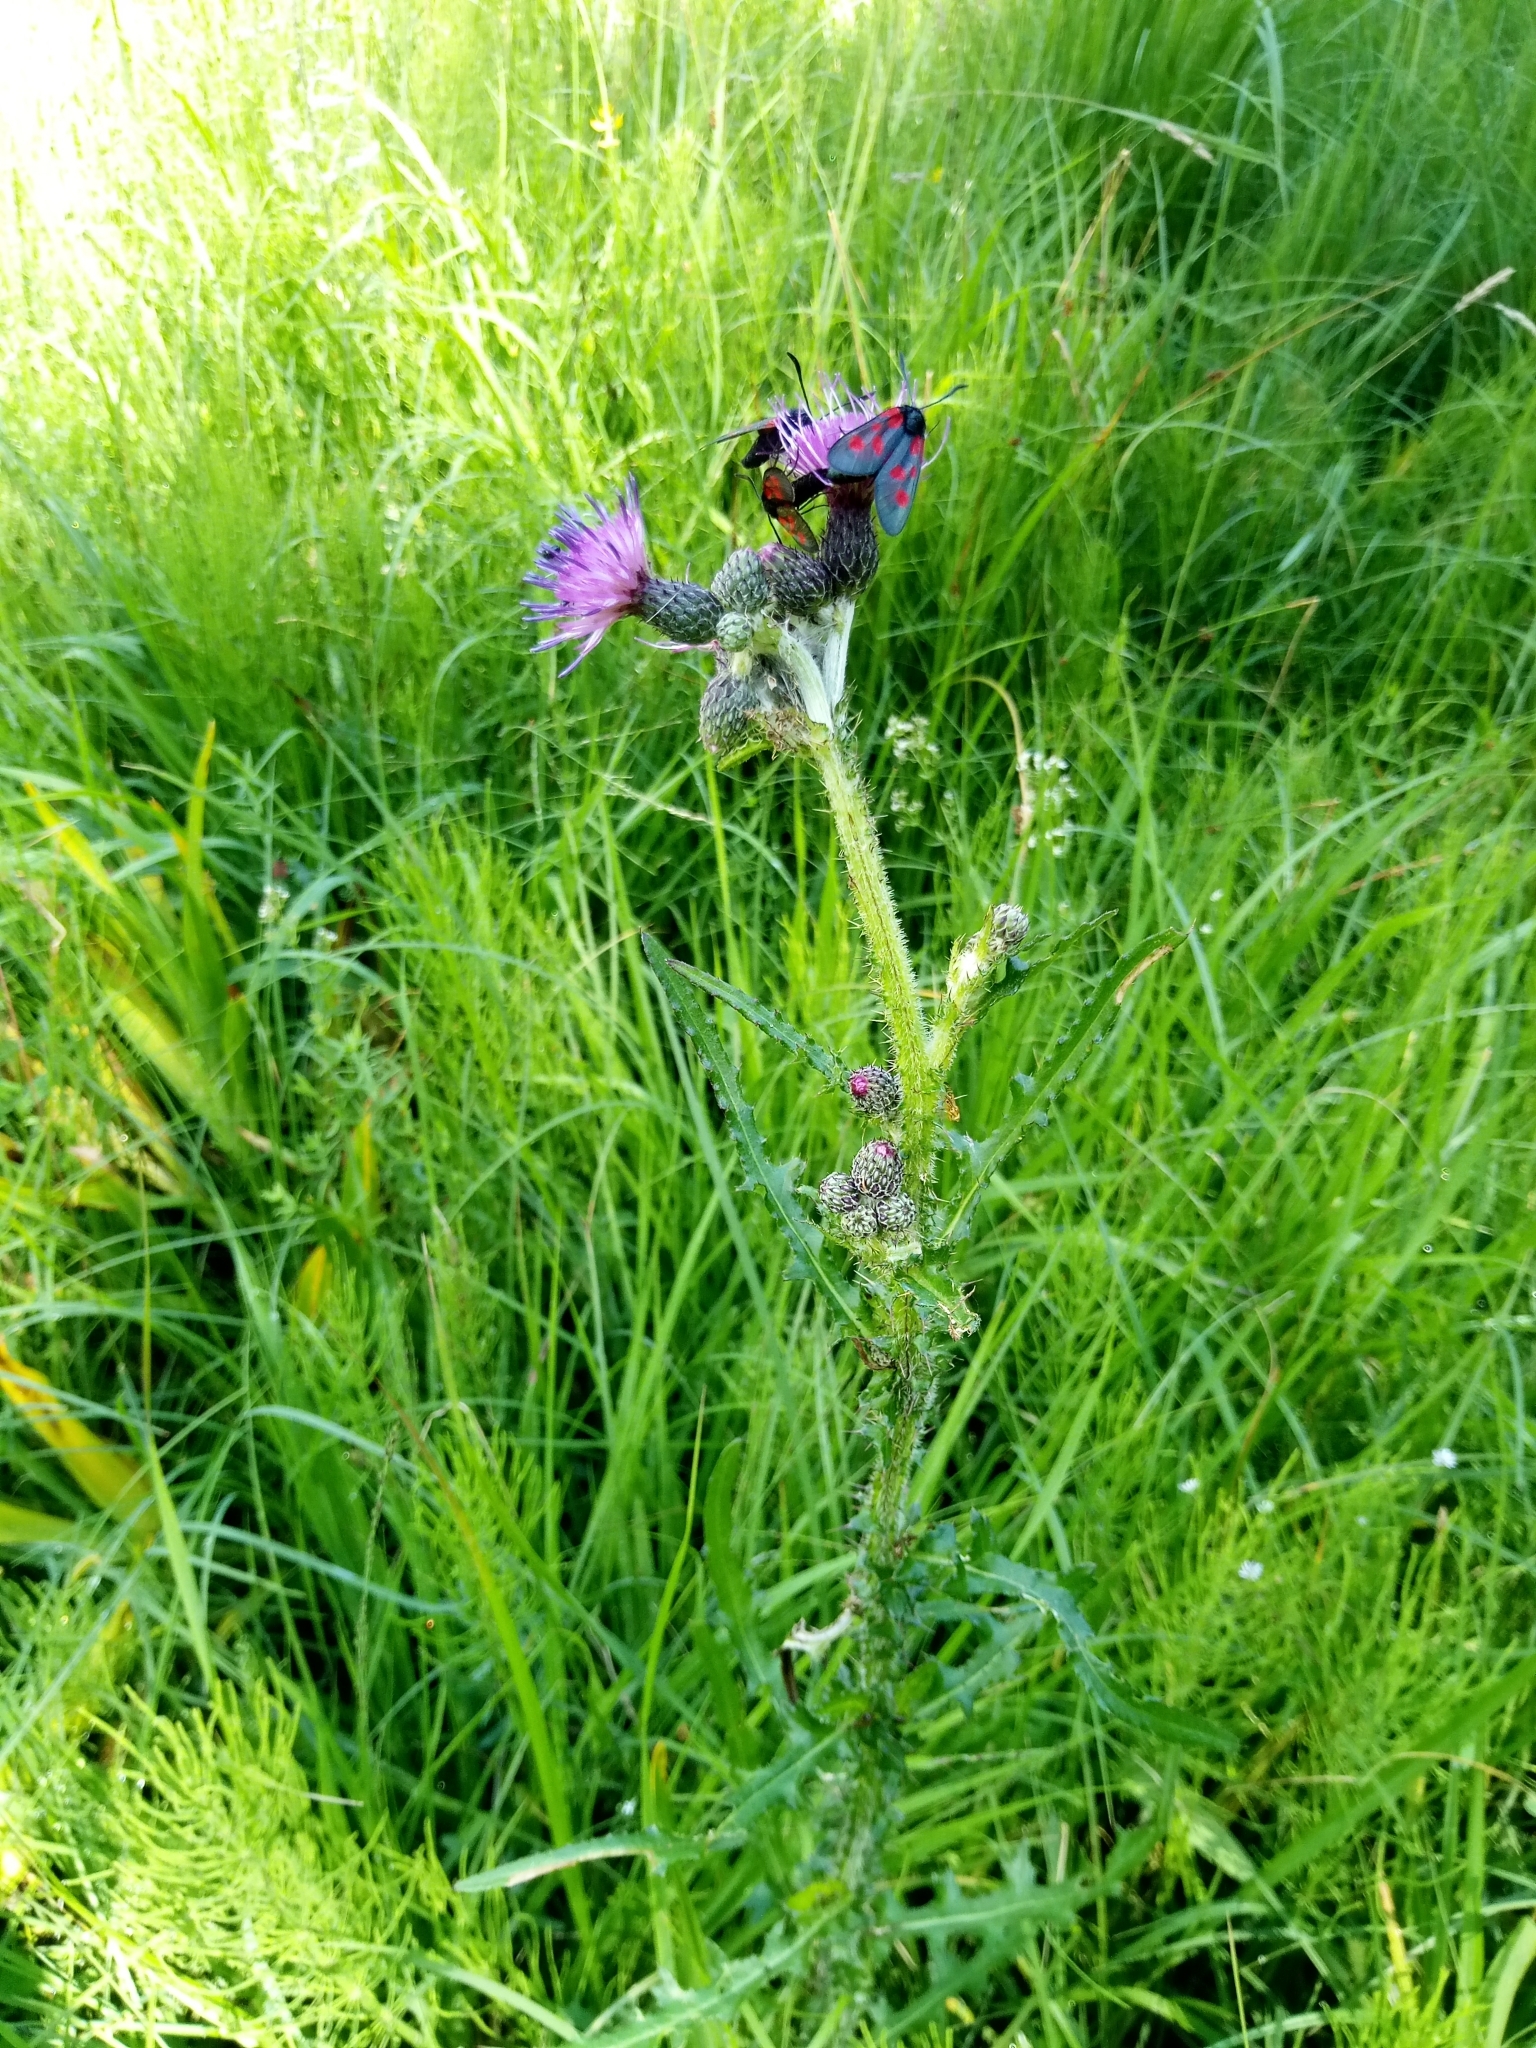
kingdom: Plantae
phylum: Tracheophyta
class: Magnoliopsida
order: Asterales
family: Asteraceae
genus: Cirsium
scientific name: Cirsium palustre
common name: Marsh thistle
